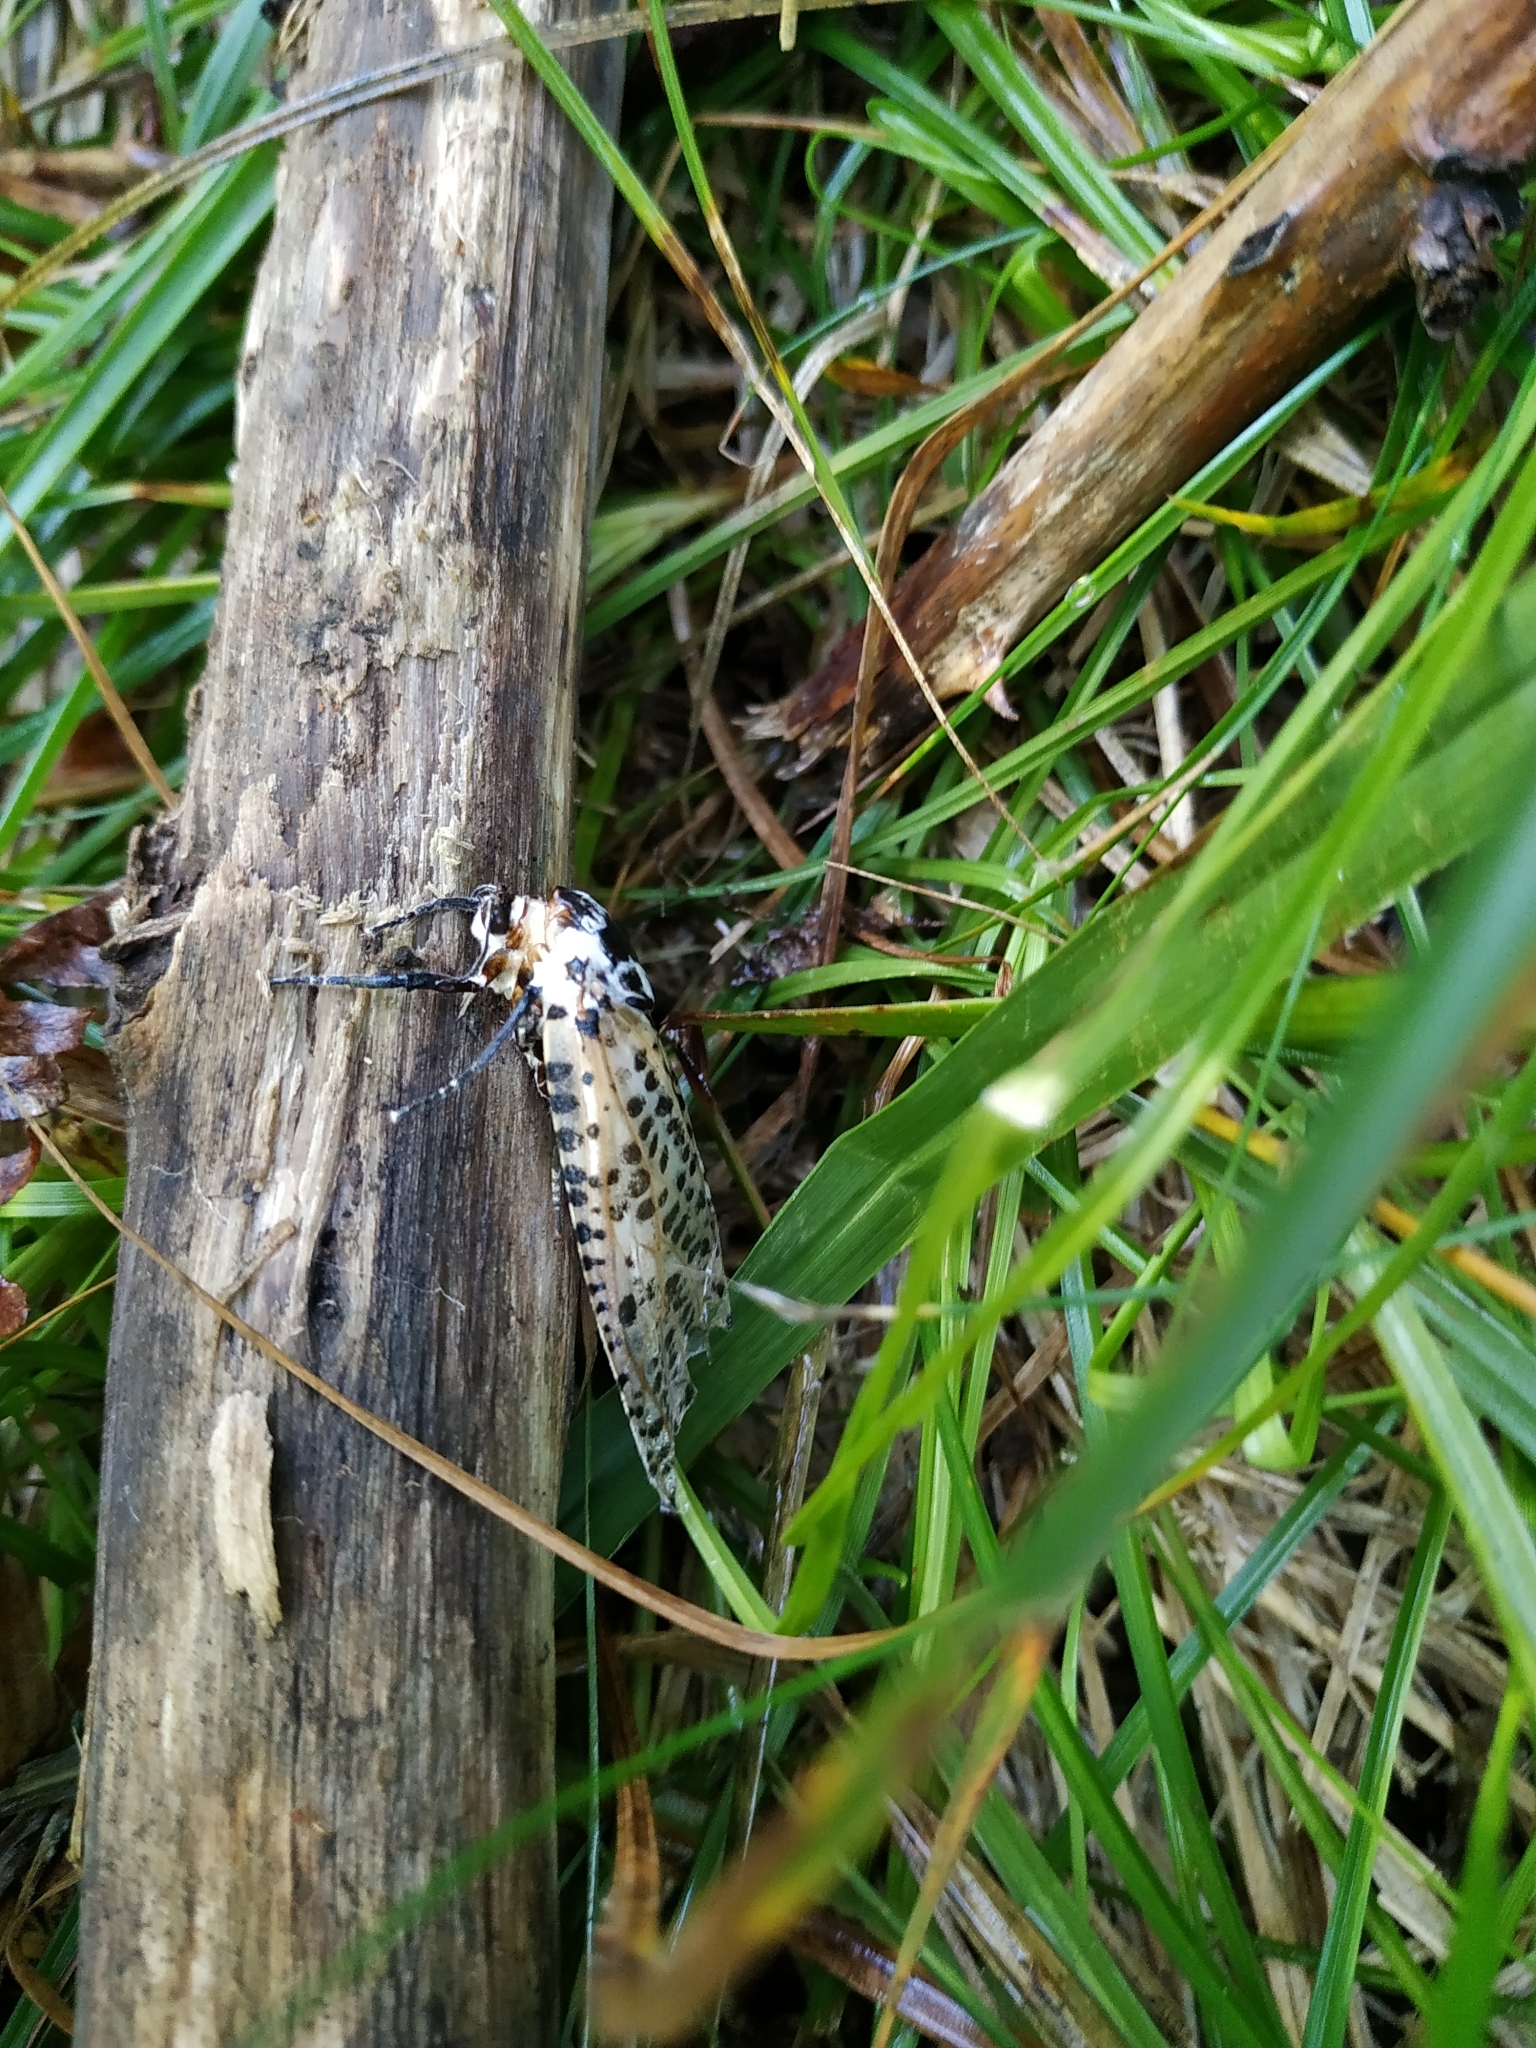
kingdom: Animalia
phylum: Arthropoda
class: Insecta
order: Lepidoptera
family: Cossidae
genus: Zeuzera
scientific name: Zeuzera pyrina
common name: Leopard moth
